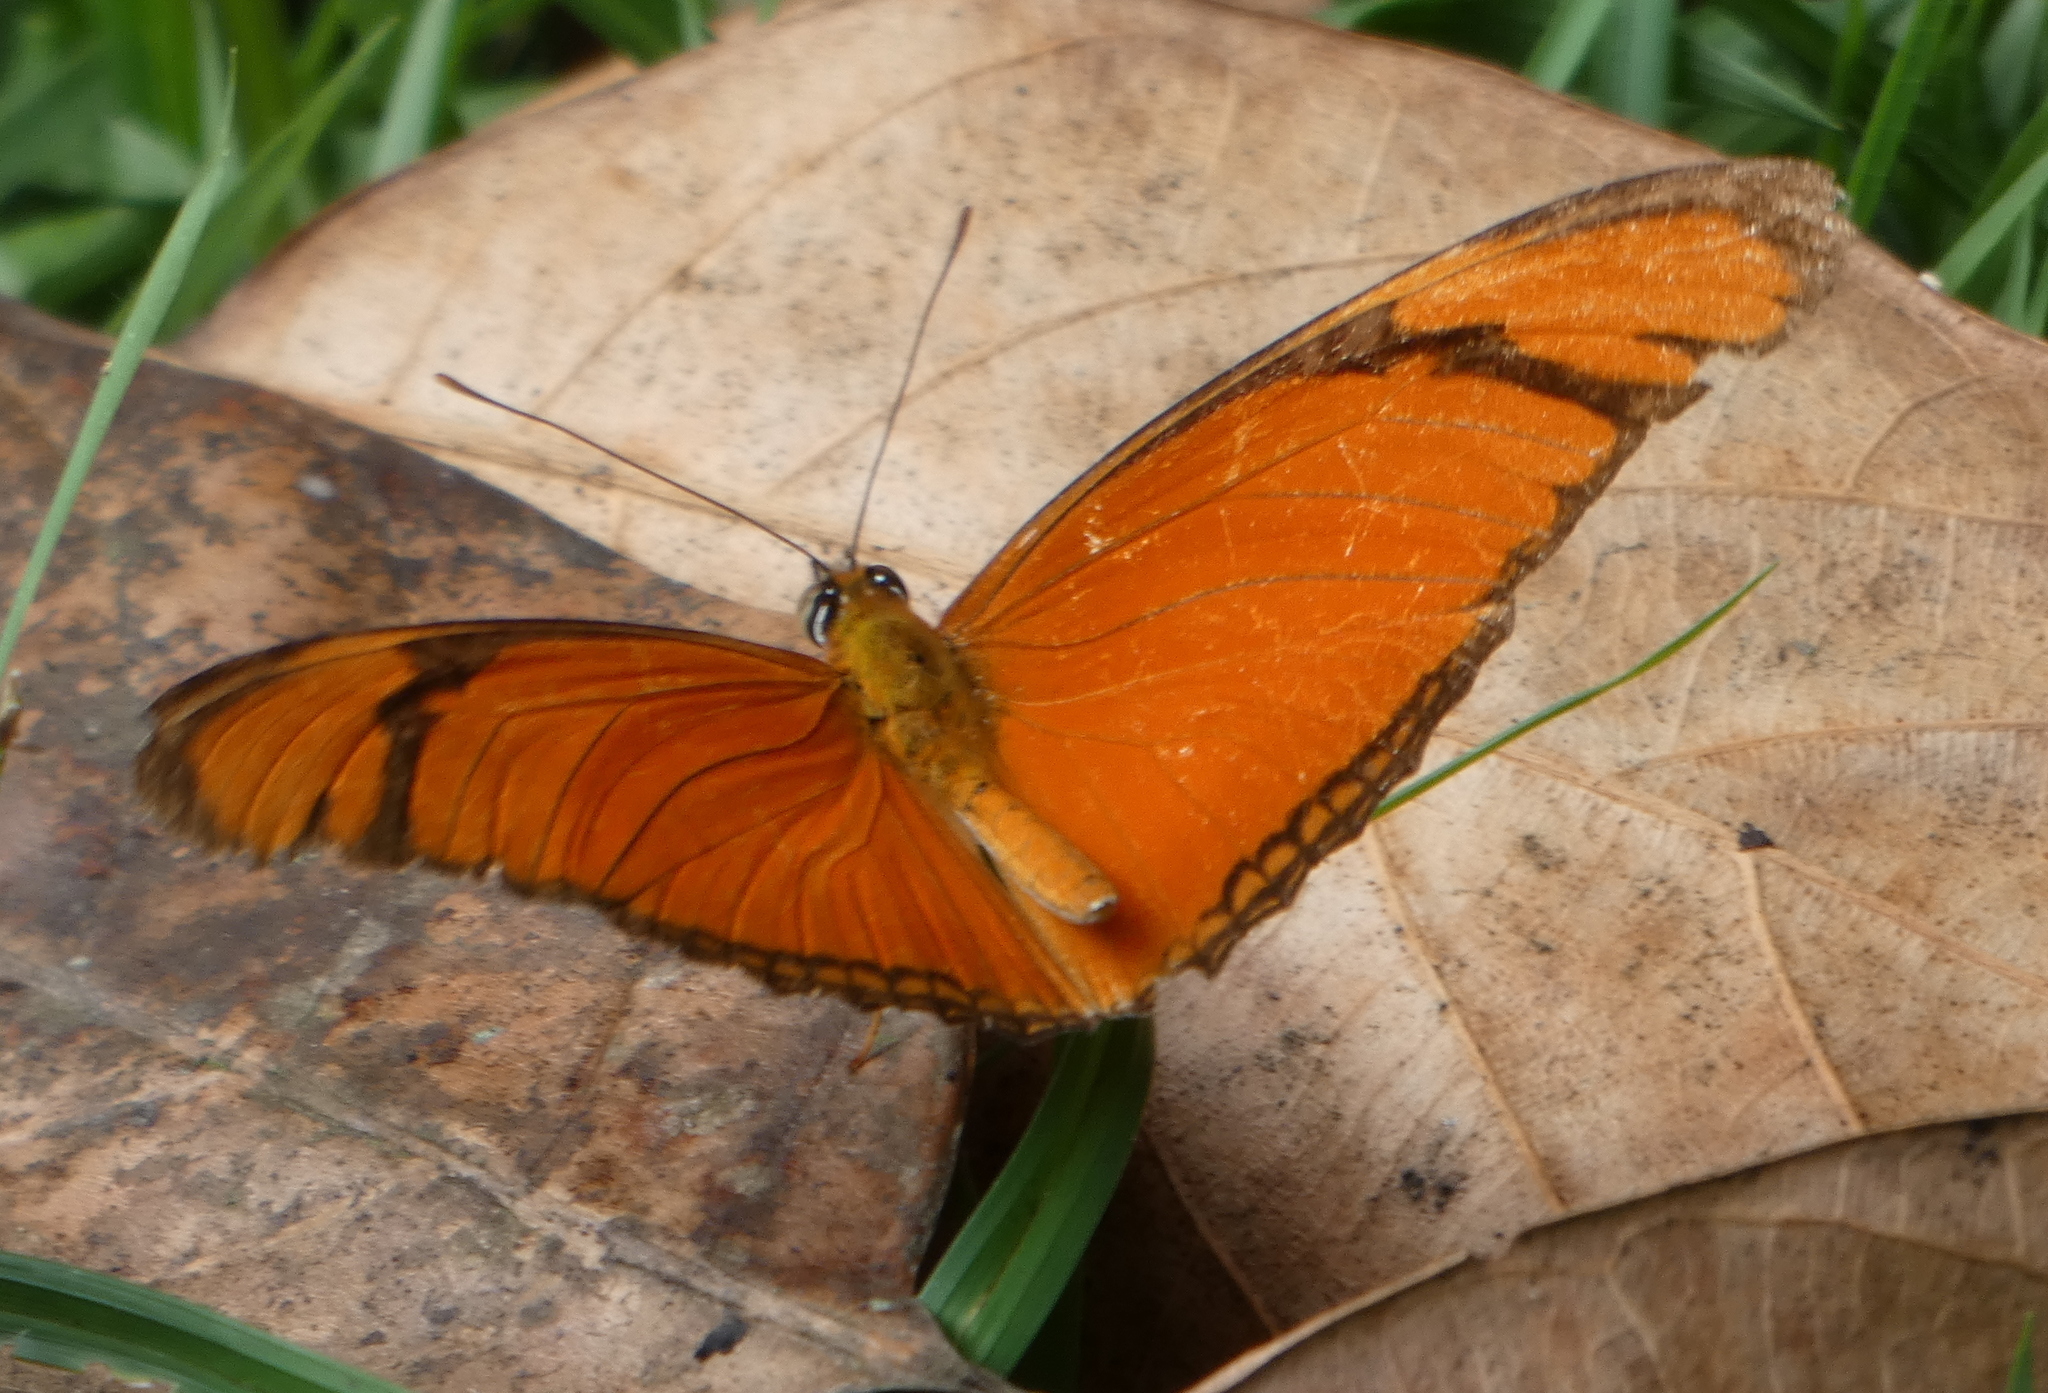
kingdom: Animalia
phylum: Arthropoda
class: Insecta
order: Lepidoptera
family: Nymphalidae
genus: Dryas
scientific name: Dryas iulia
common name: Flambeau
